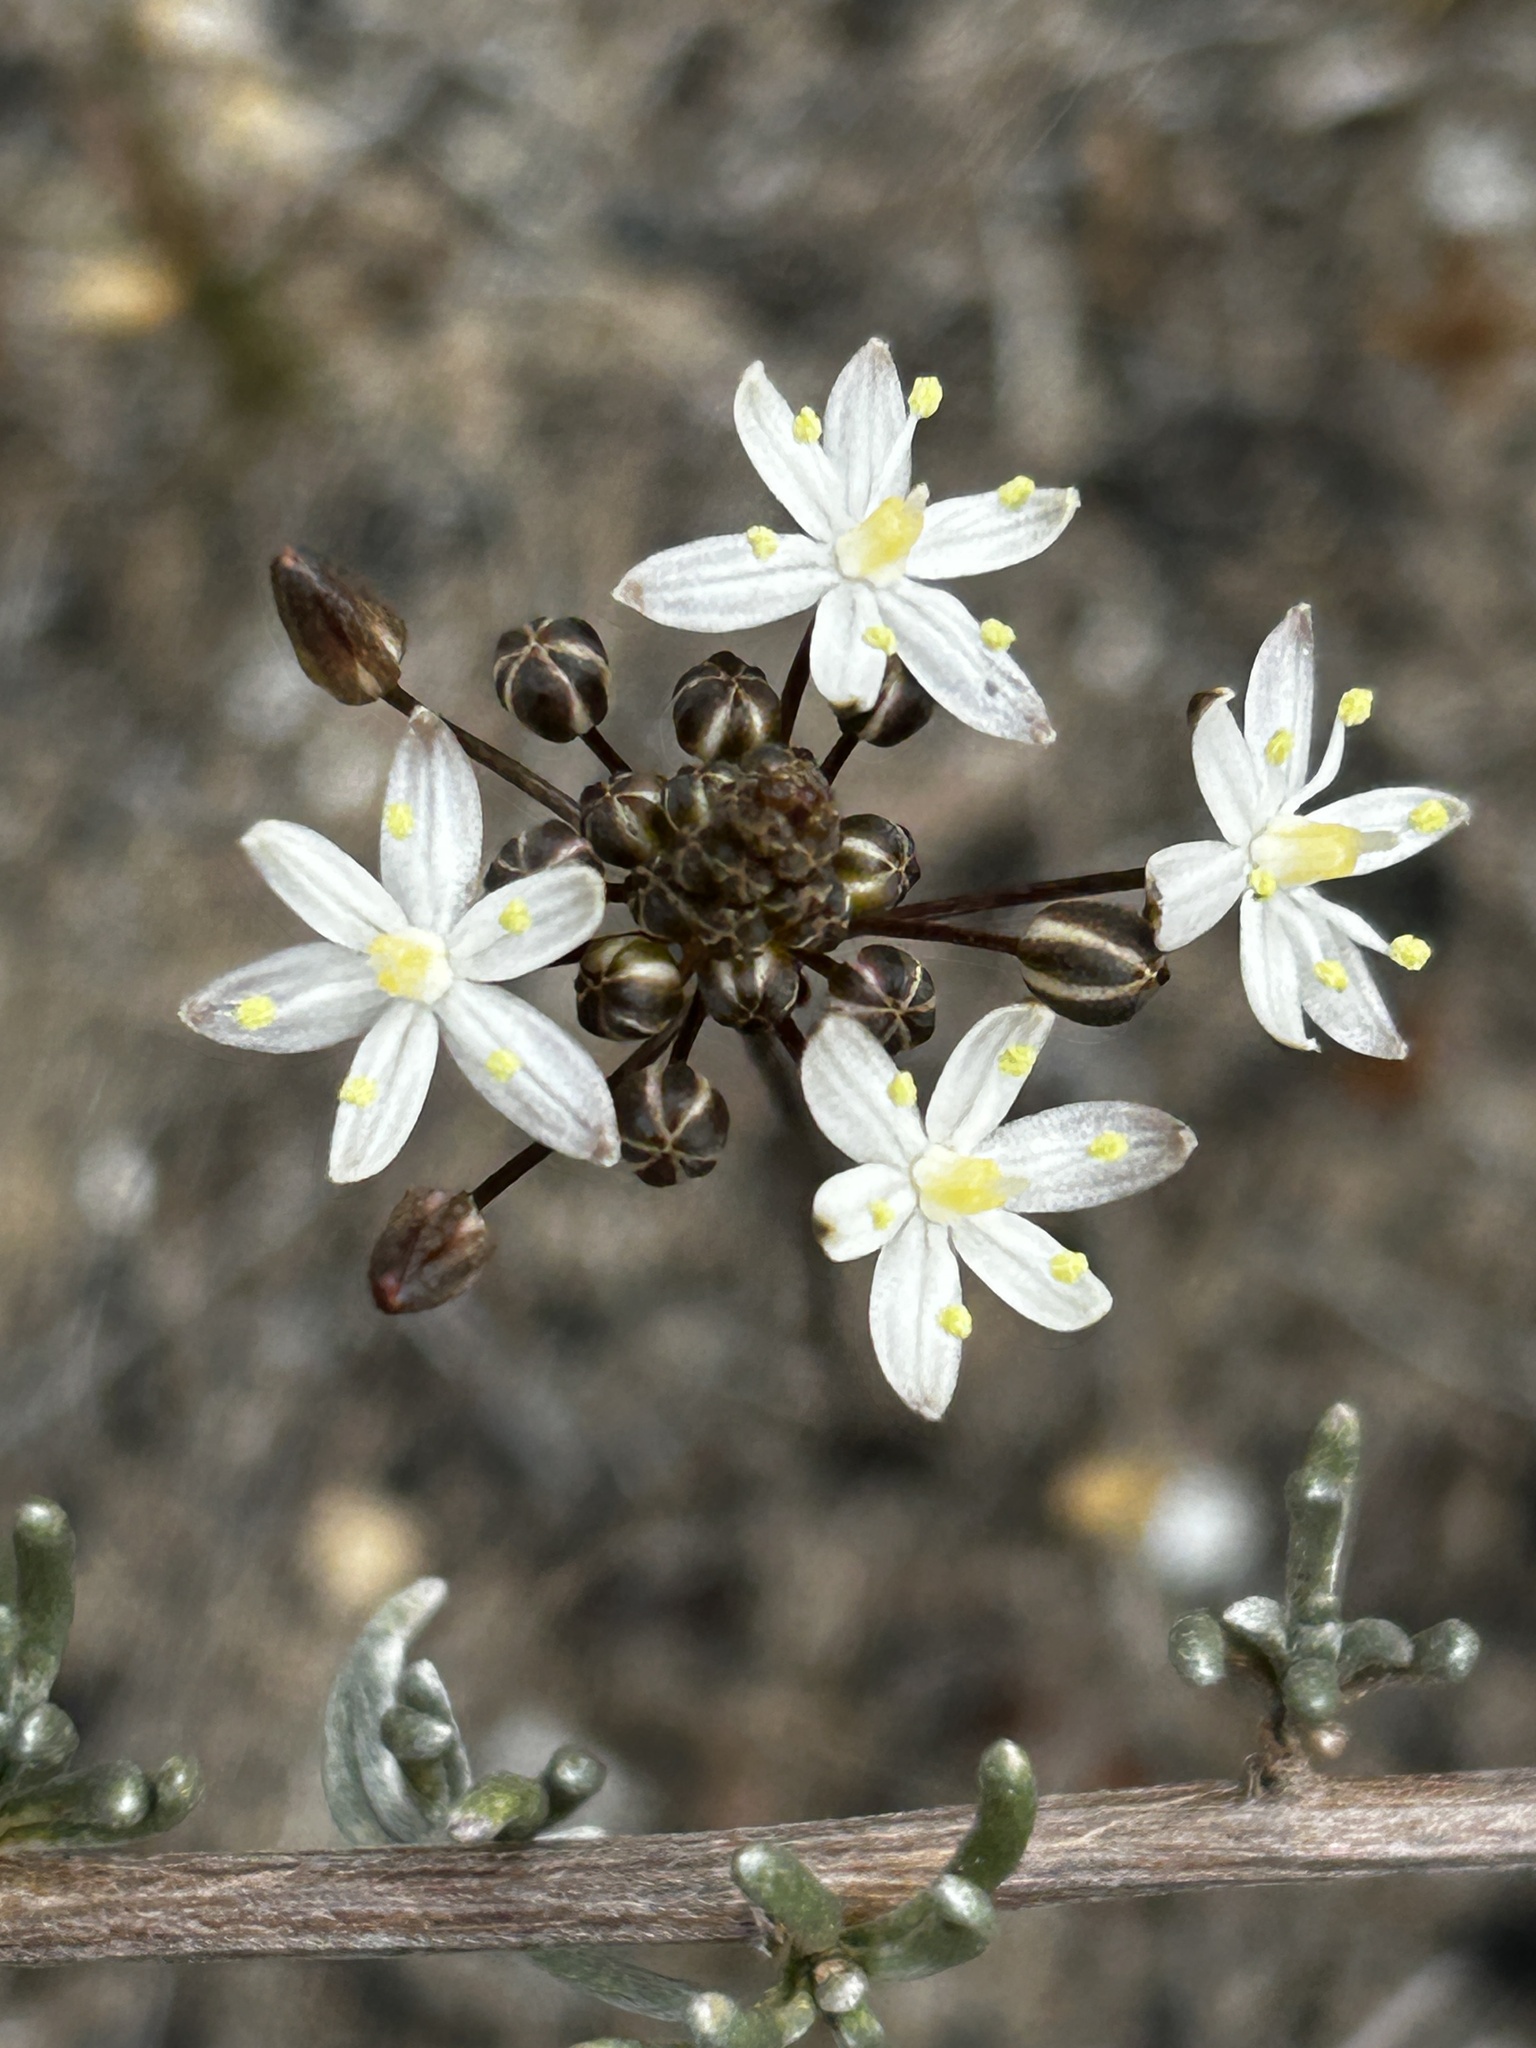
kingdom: Plantae
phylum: Tracheophyta
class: Liliopsida
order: Asparagales
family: Asparagaceae
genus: Fusifilum
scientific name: Fusifilum physodes
